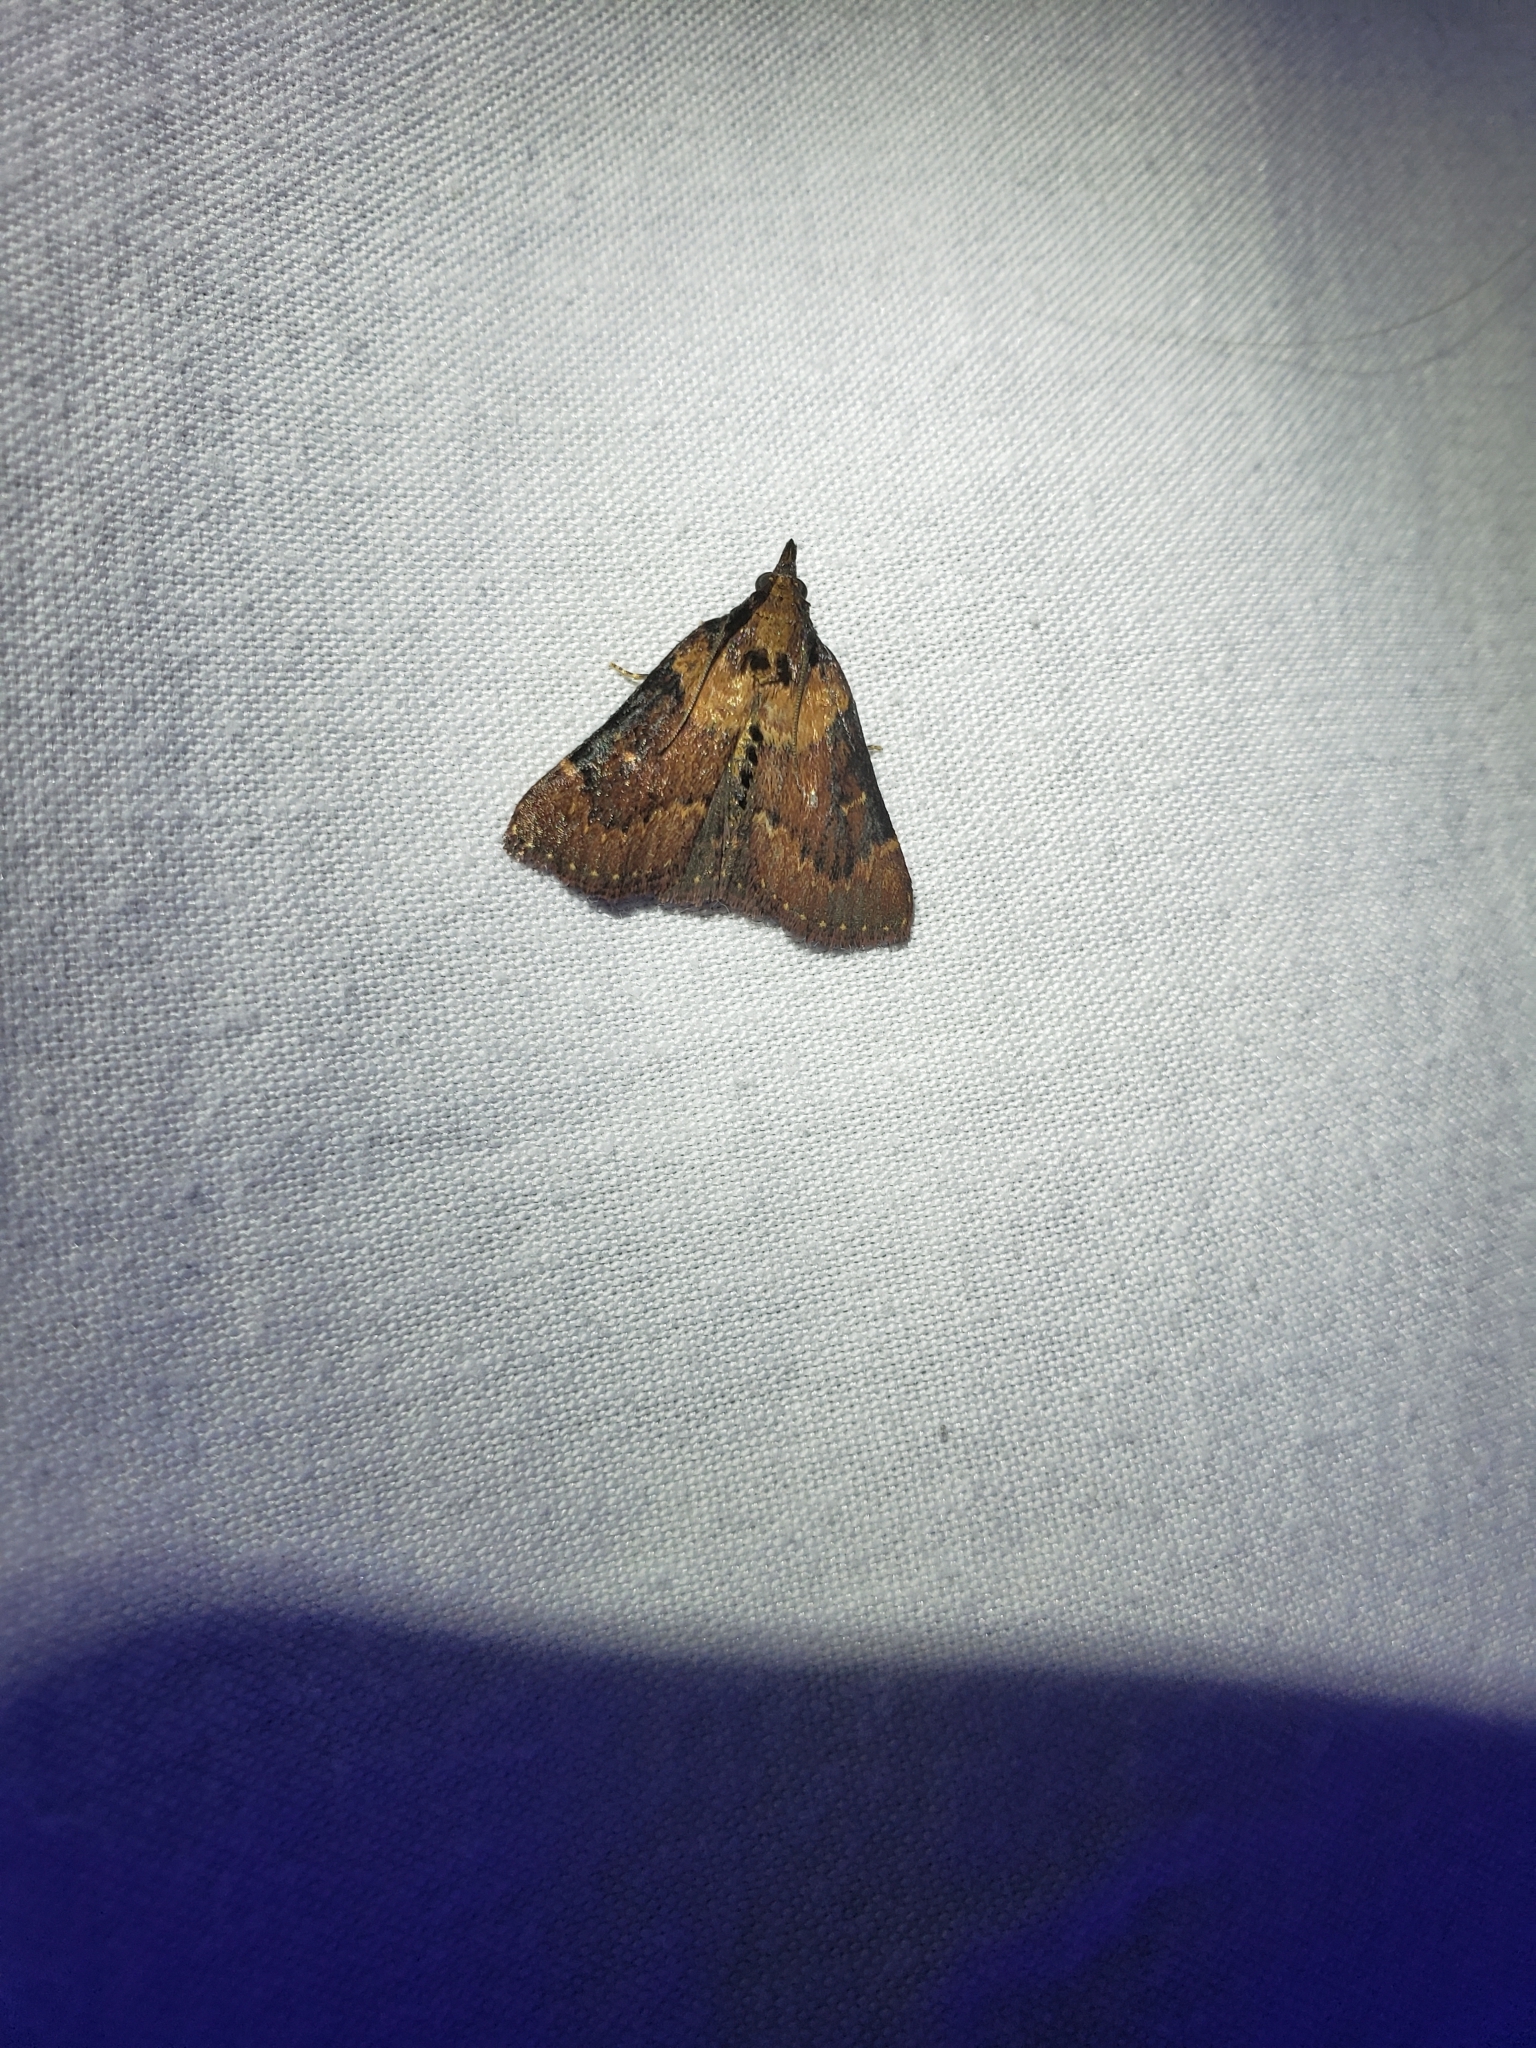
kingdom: Animalia
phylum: Arthropoda
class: Insecta
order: Lepidoptera
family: Pyralidae
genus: Omphalocera
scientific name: Omphalocera munroei
